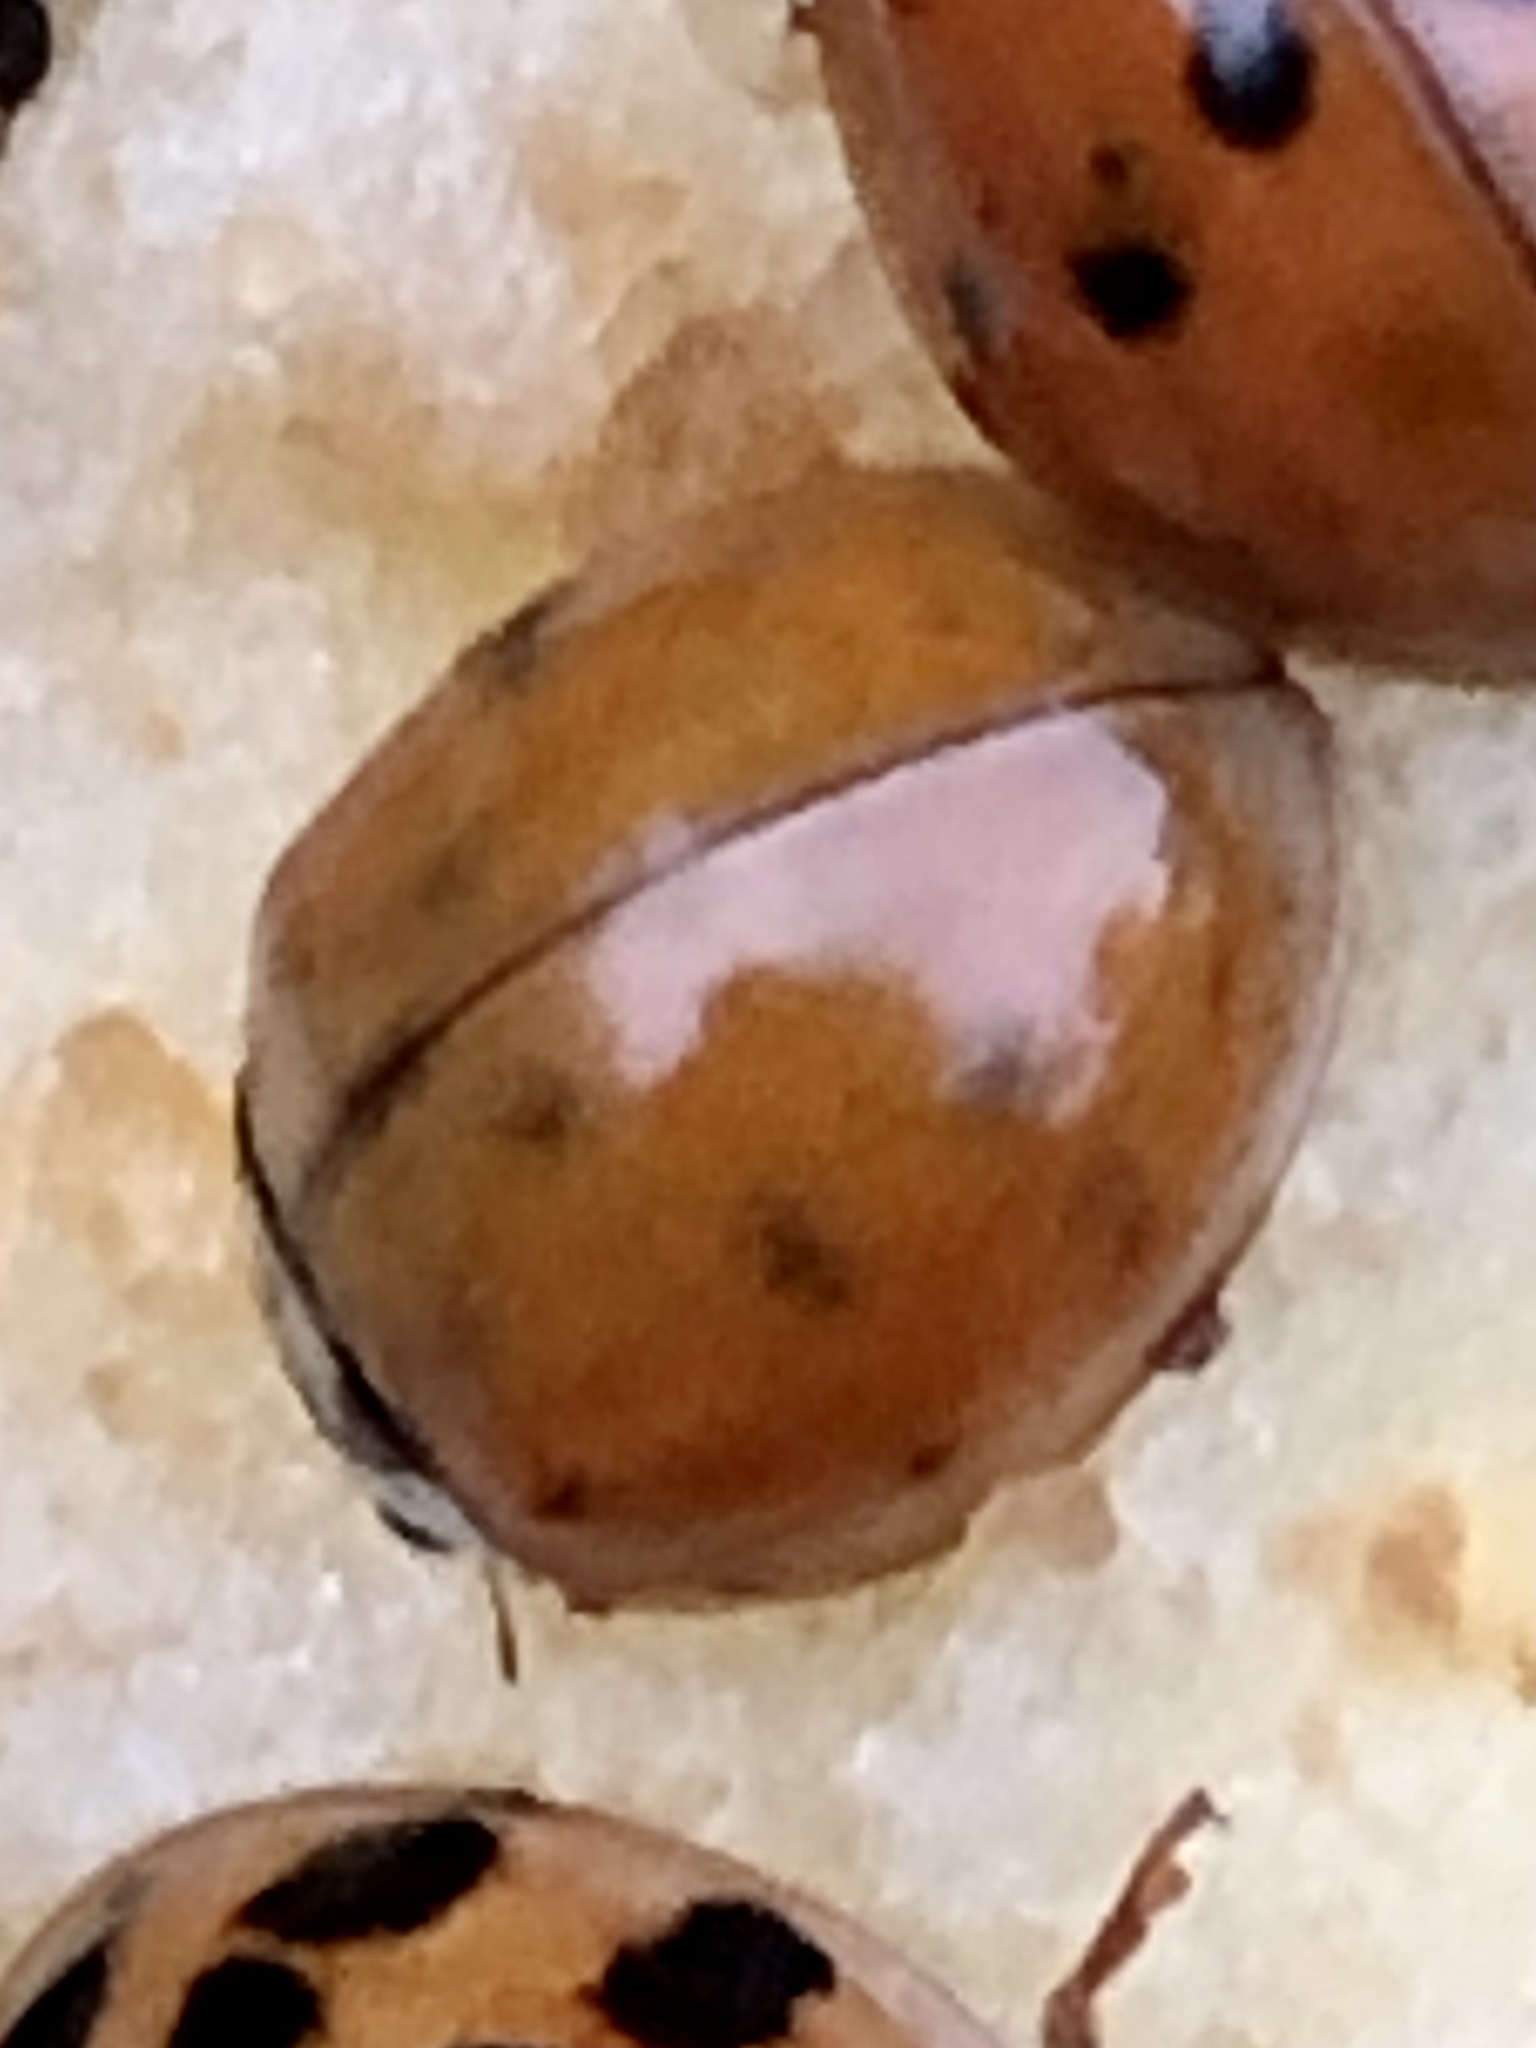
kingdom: Animalia
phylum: Arthropoda
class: Insecta
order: Coleoptera
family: Coccinellidae
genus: Harmonia
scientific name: Harmonia axyridis
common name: Harlequin ladybird
